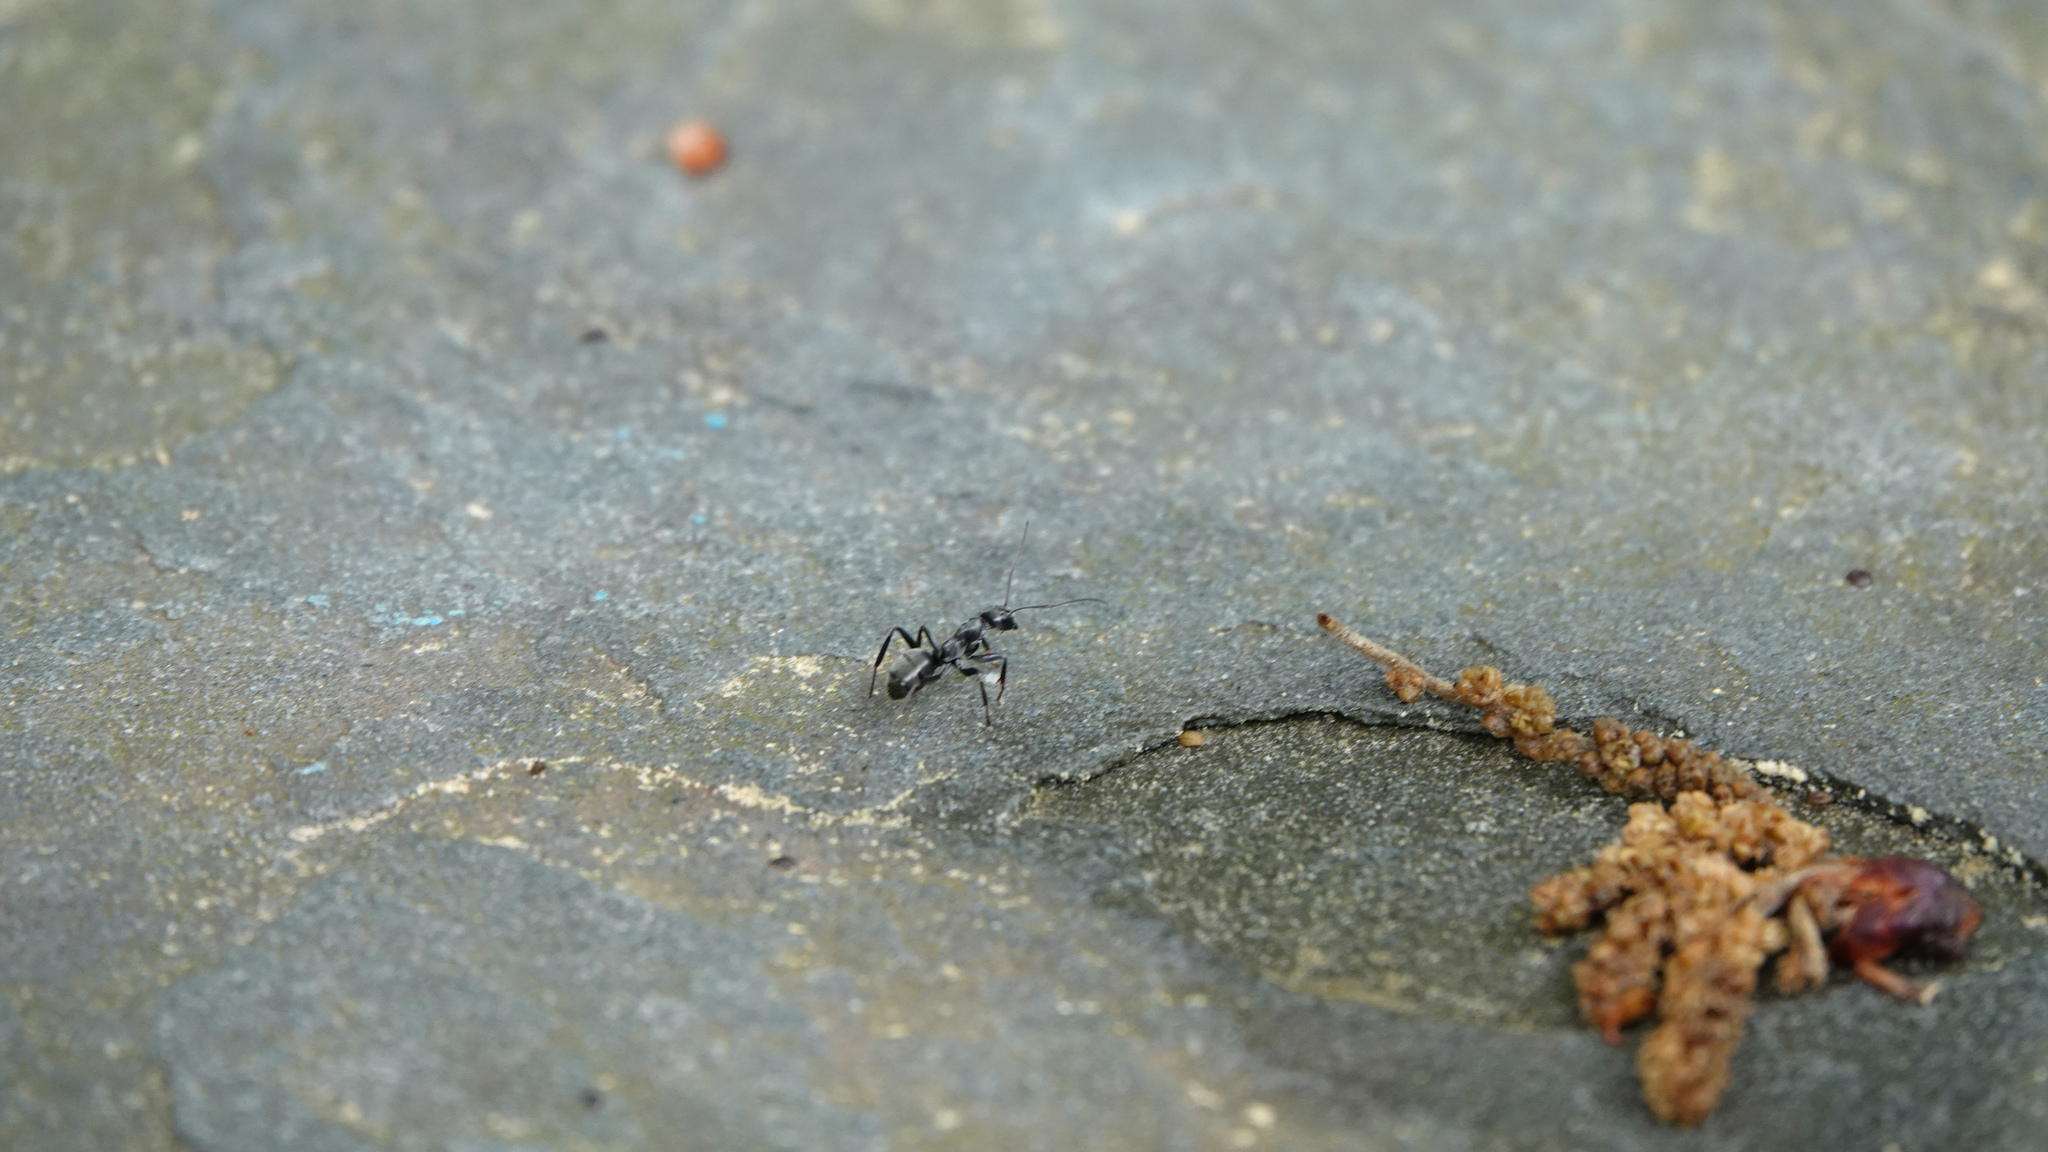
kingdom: Animalia
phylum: Arthropoda
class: Insecta
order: Hymenoptera
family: Formicidae
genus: Formica
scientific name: Formica
